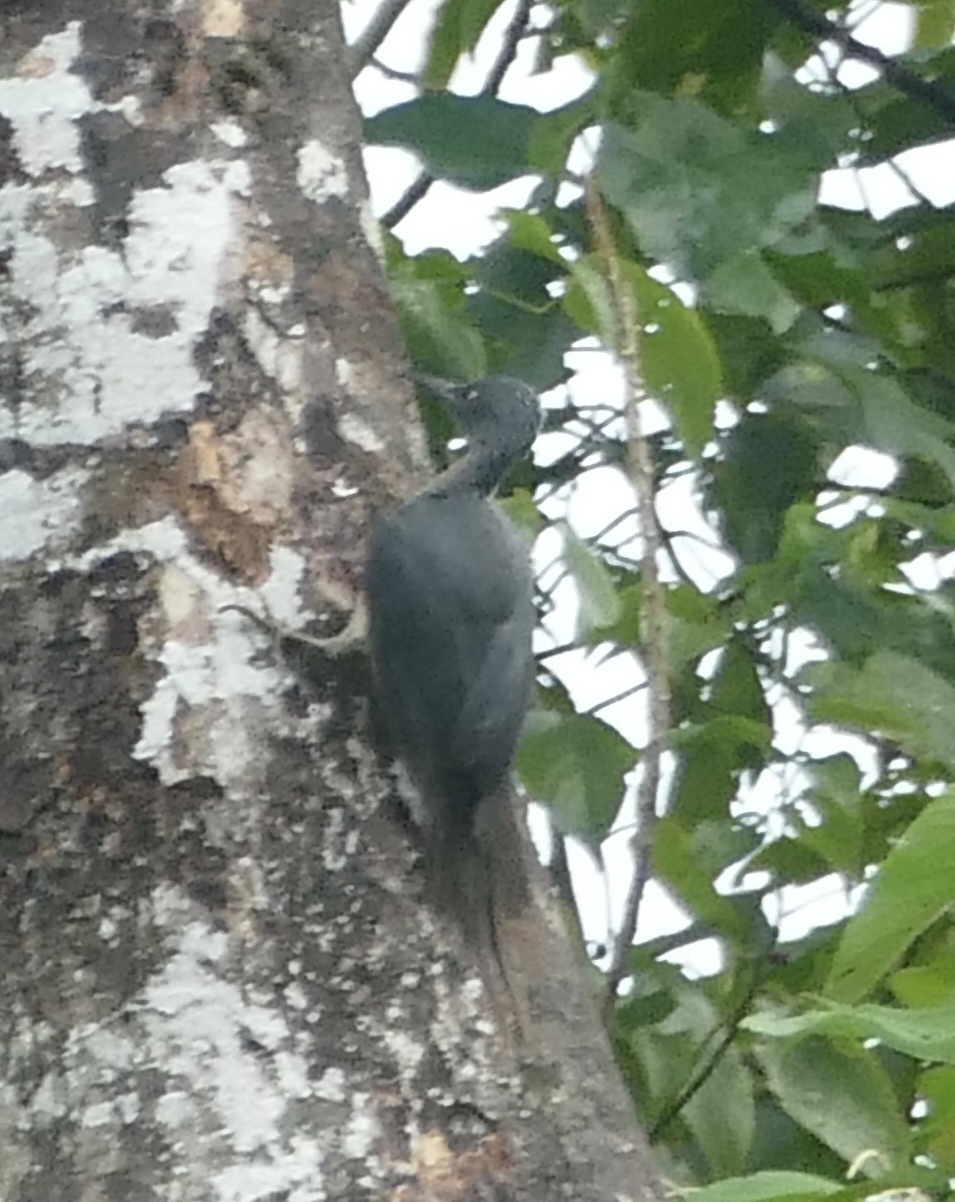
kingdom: Animalia
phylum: Chordata
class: Aves
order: Piciformes
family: Picidae
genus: Mulleripicus
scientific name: Mulleripicus fulvus
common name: Ashy woodpecker
